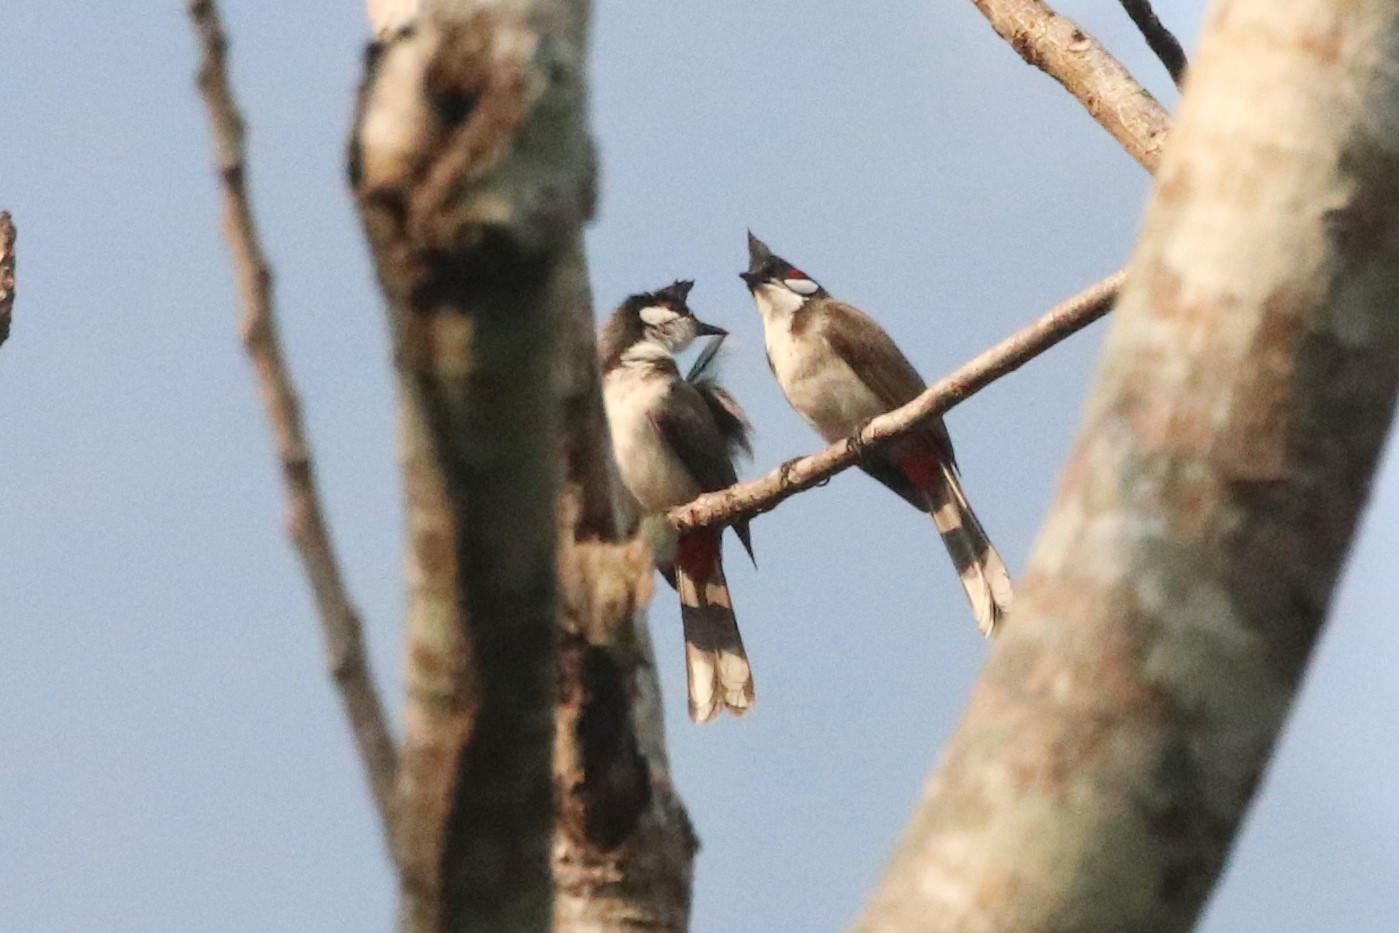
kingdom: Animalia
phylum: Chordata
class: Aves
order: Passeriformes
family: Pycnonotidae
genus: Pycnonotus
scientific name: Pycnonotus jocosus
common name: Red-whiskered bulbul
